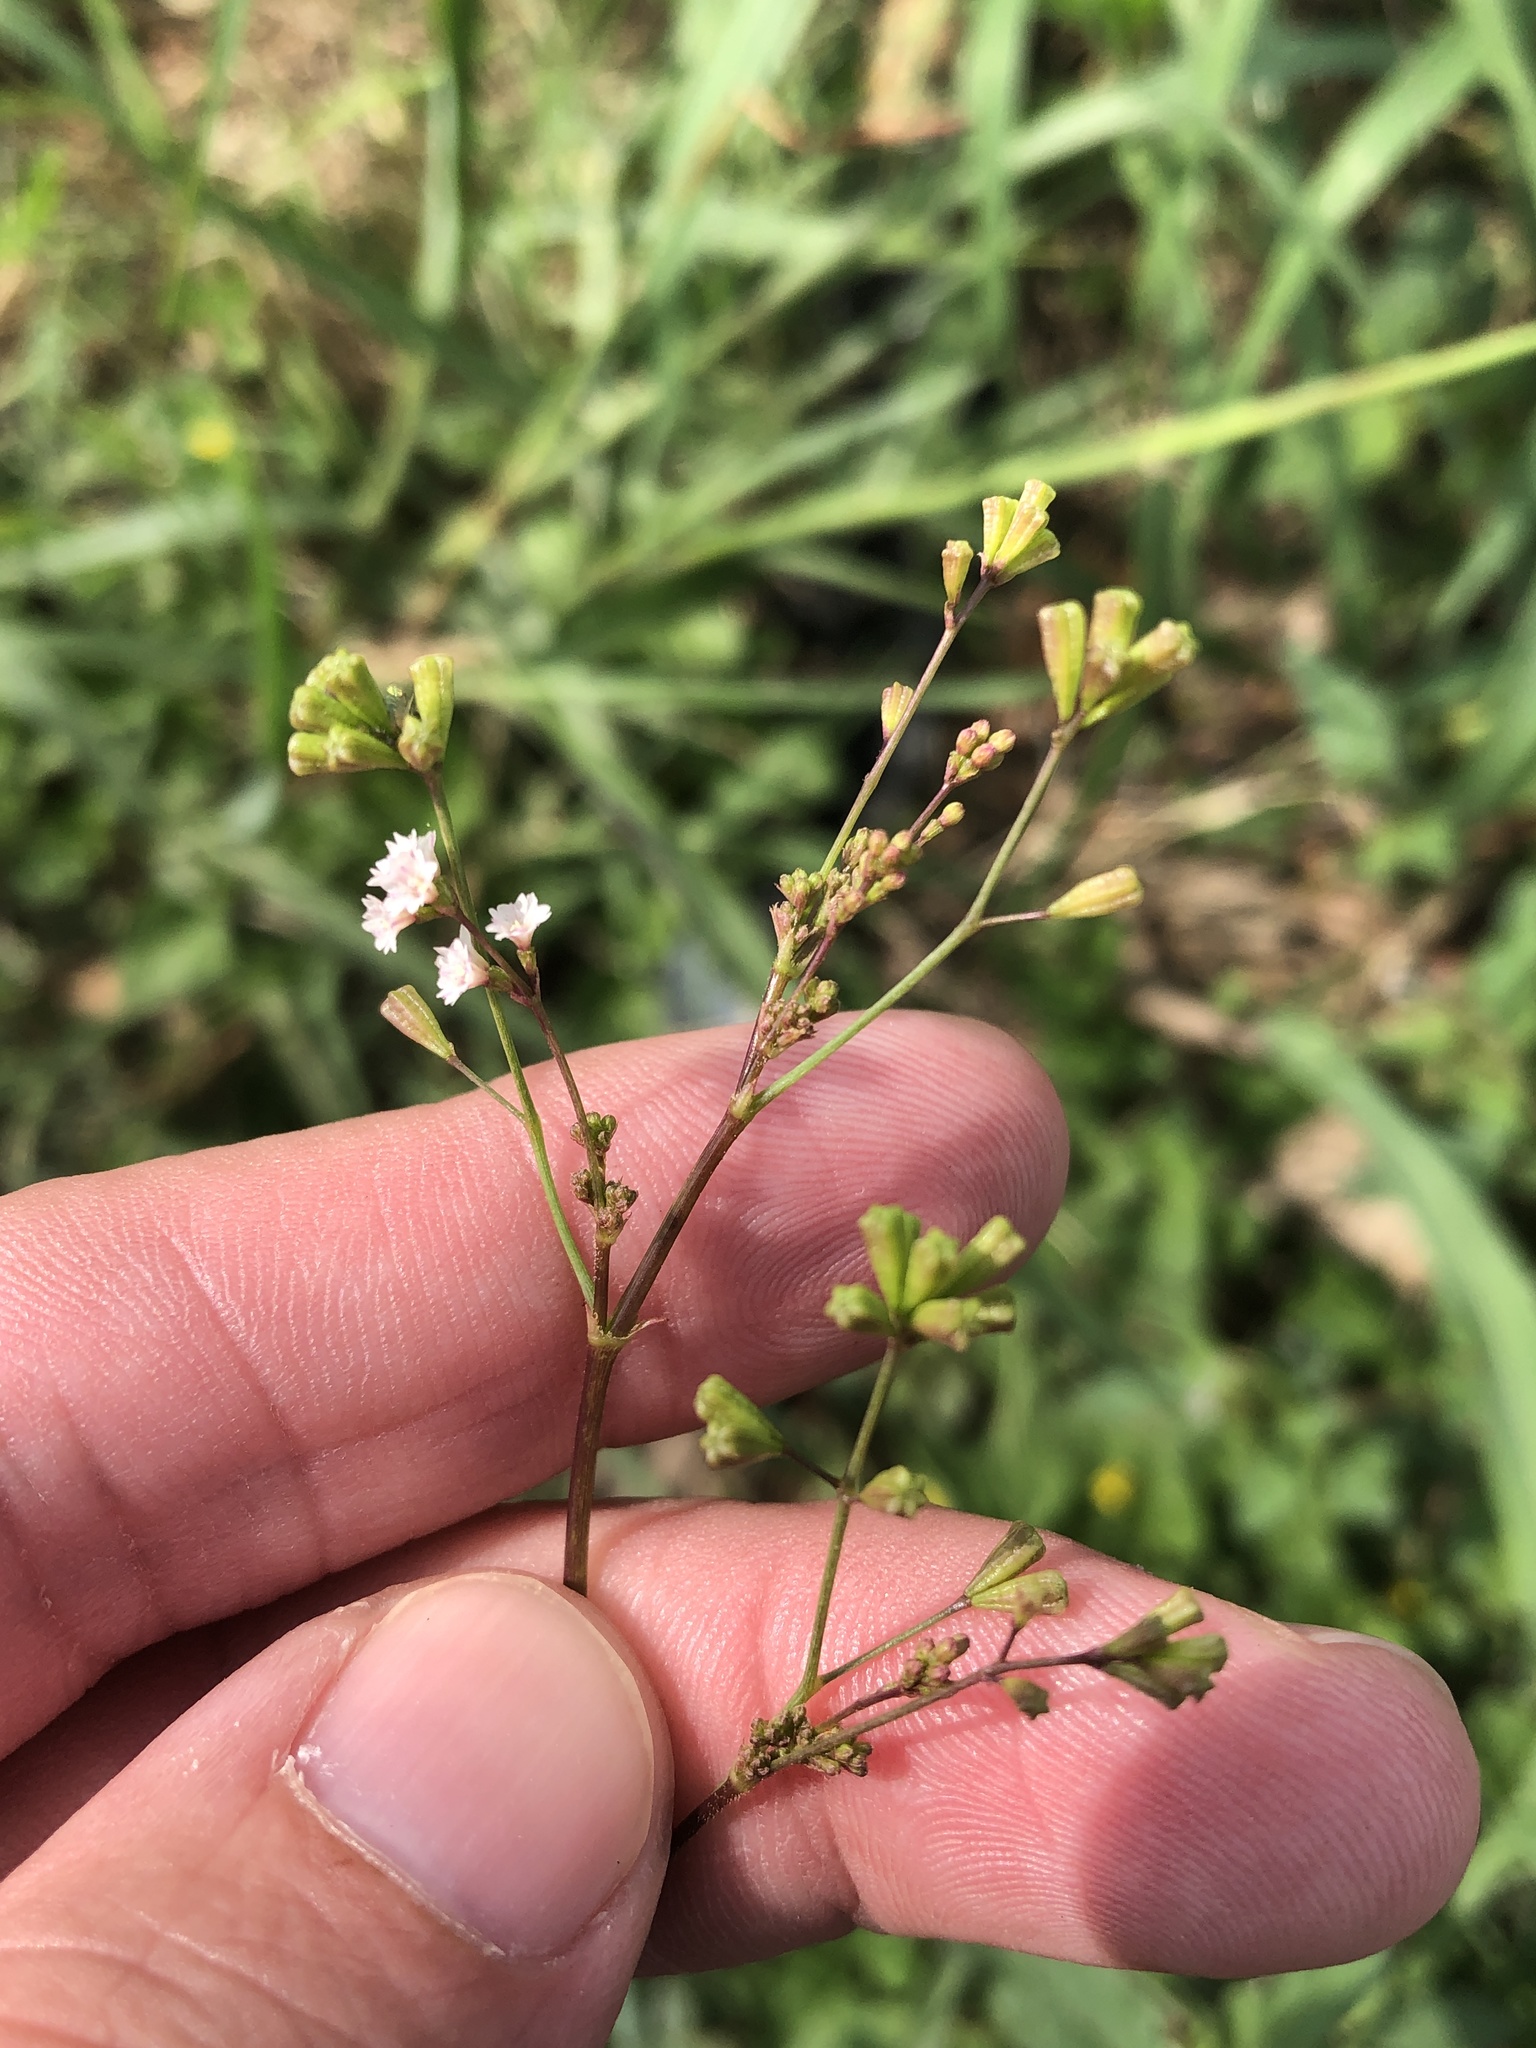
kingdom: Plantae
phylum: Tracheophyta
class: Magnoliopsida
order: Caryophyllales
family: Nyctaginaceae
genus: Boerhavia
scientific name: Boerhavia erecta
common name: Erect spiderling
